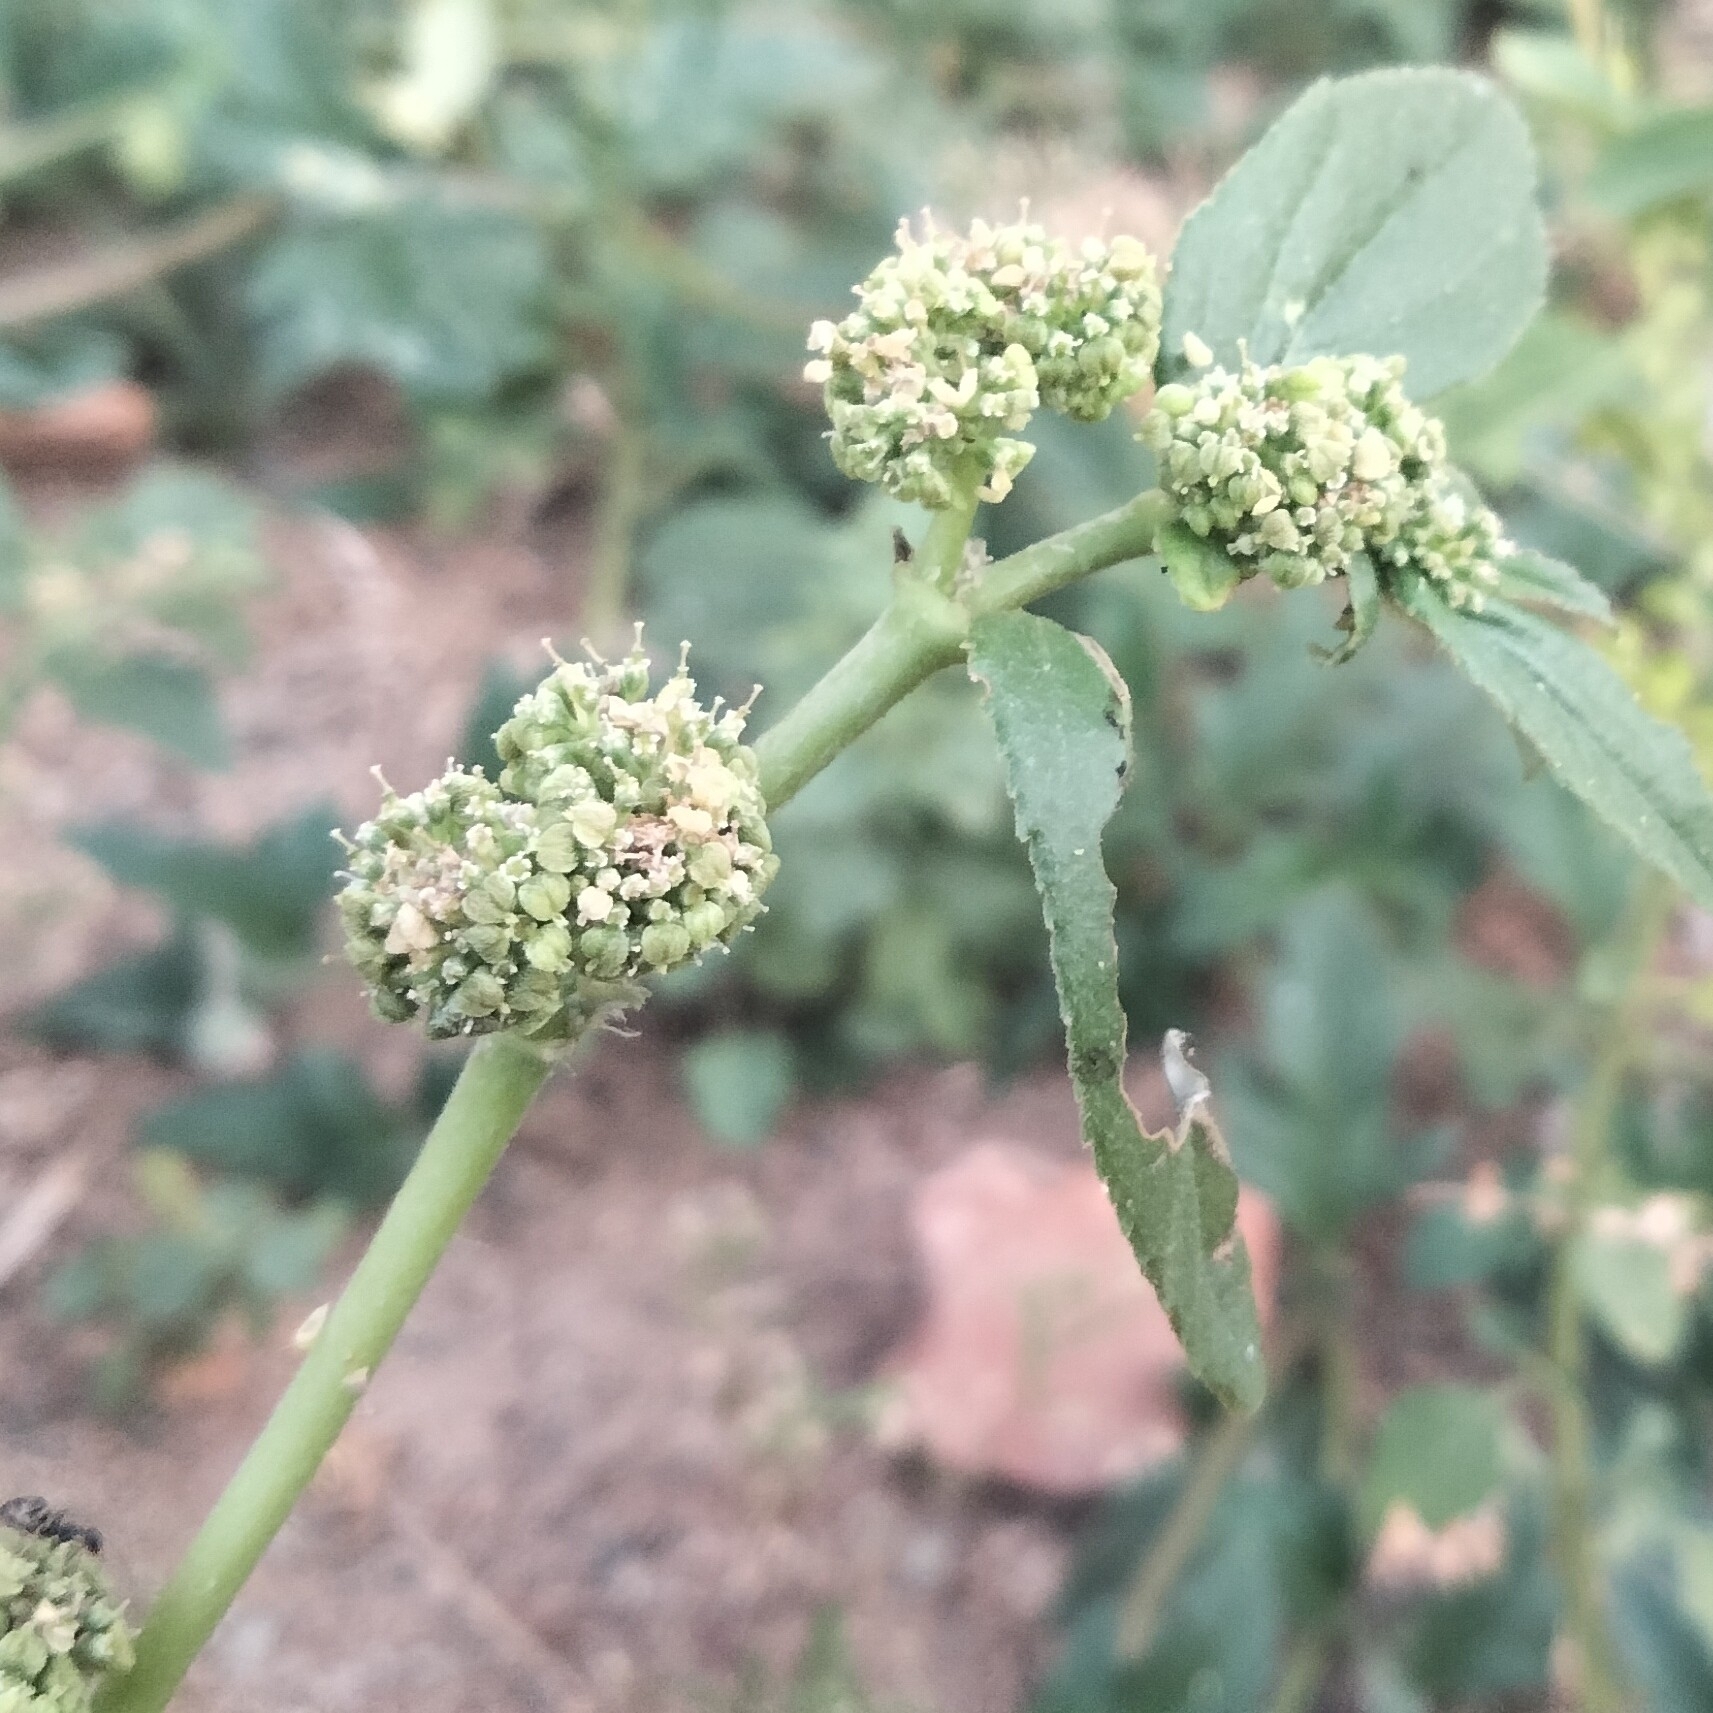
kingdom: Plantae
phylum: Tracheophyta
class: Magnoliopsida
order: Malpighiales
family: Euphorbiaceae
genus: Euphorbia
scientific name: Euphorbia hirta
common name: Pillpod sandmat
